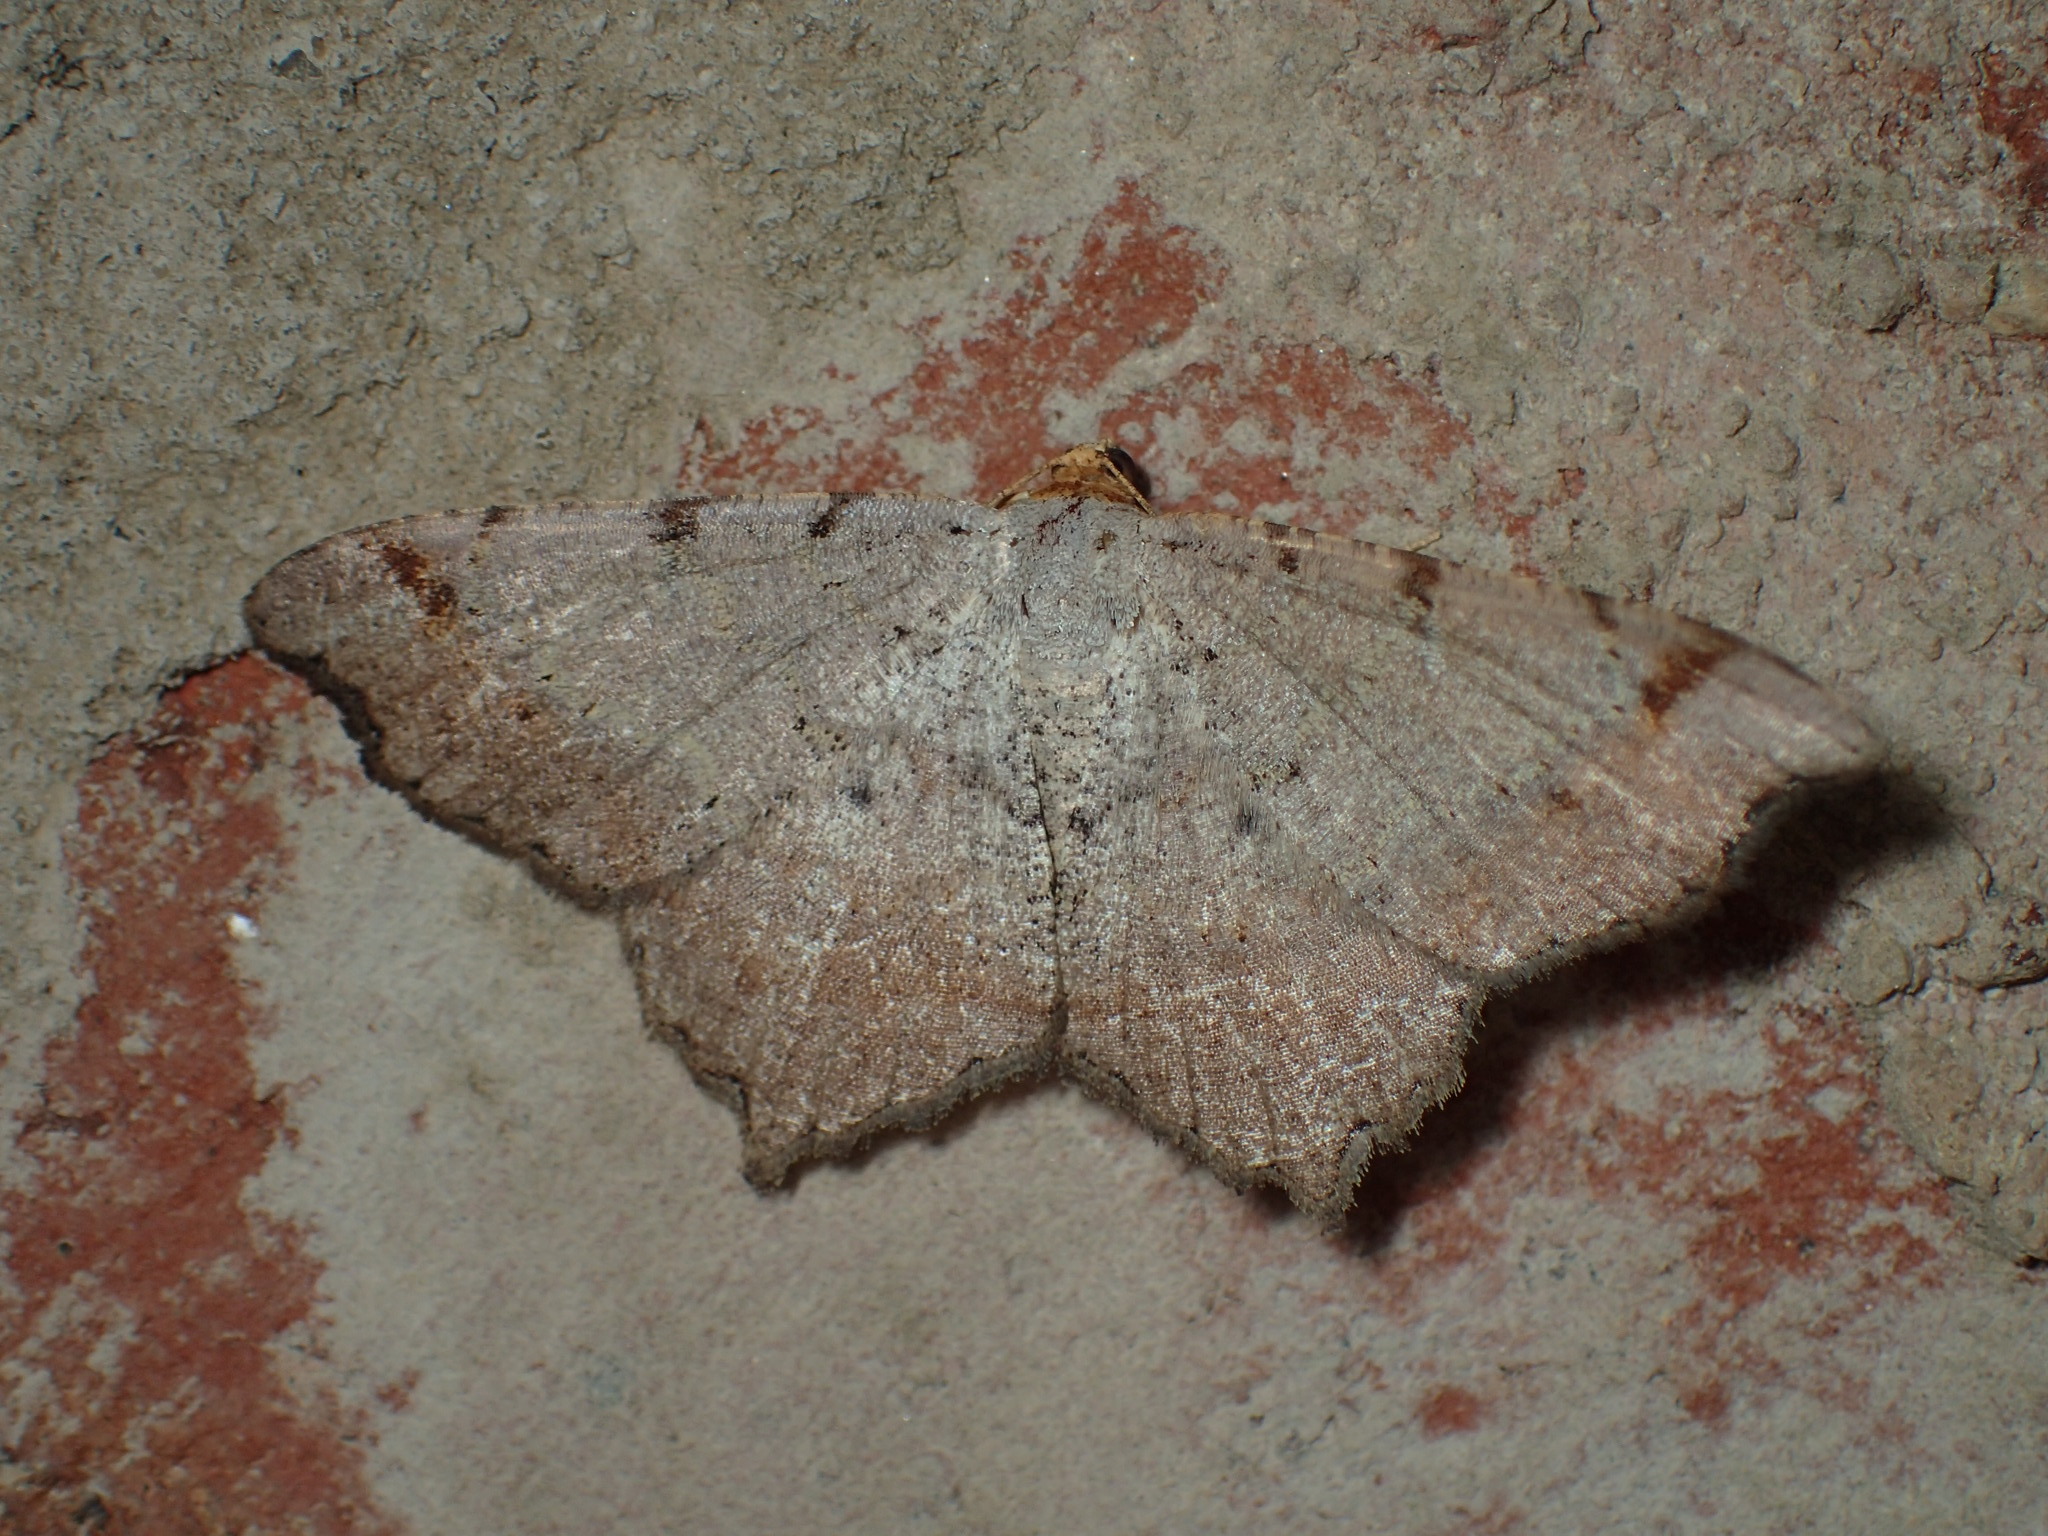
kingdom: Animalia
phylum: Arthropoda
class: Insecta
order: Lepidoptera
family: Geometridae
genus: Macaria
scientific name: Macaria
